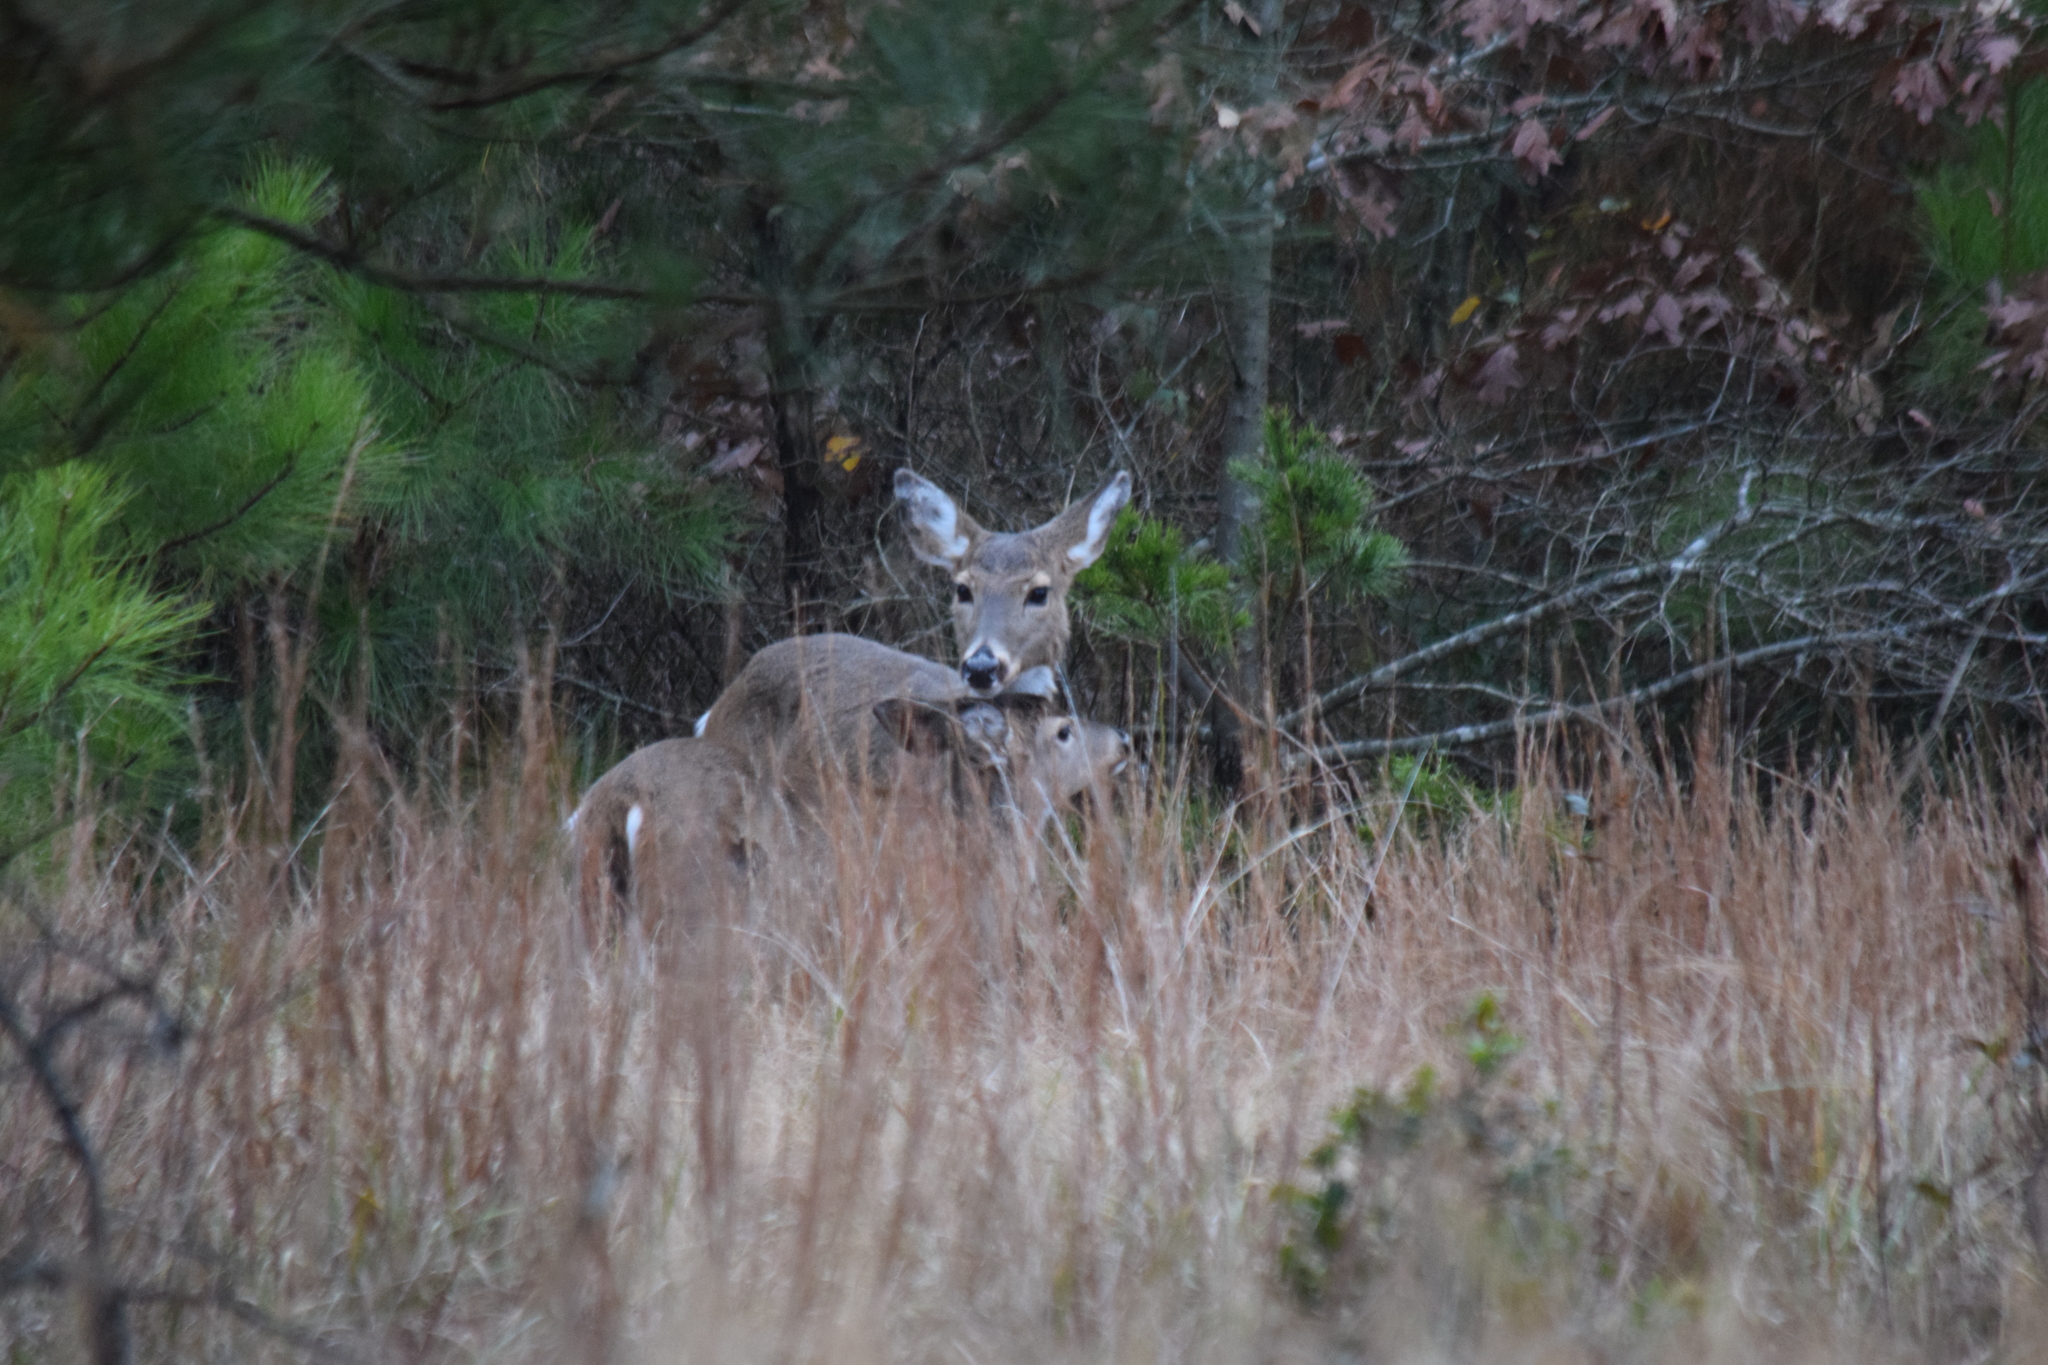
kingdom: Animalia
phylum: Chordata
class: Mammalia
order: Artiodactyla
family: Cervidae
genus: Odocoileus
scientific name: Odocoileus virginianus
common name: White-tailed deer
